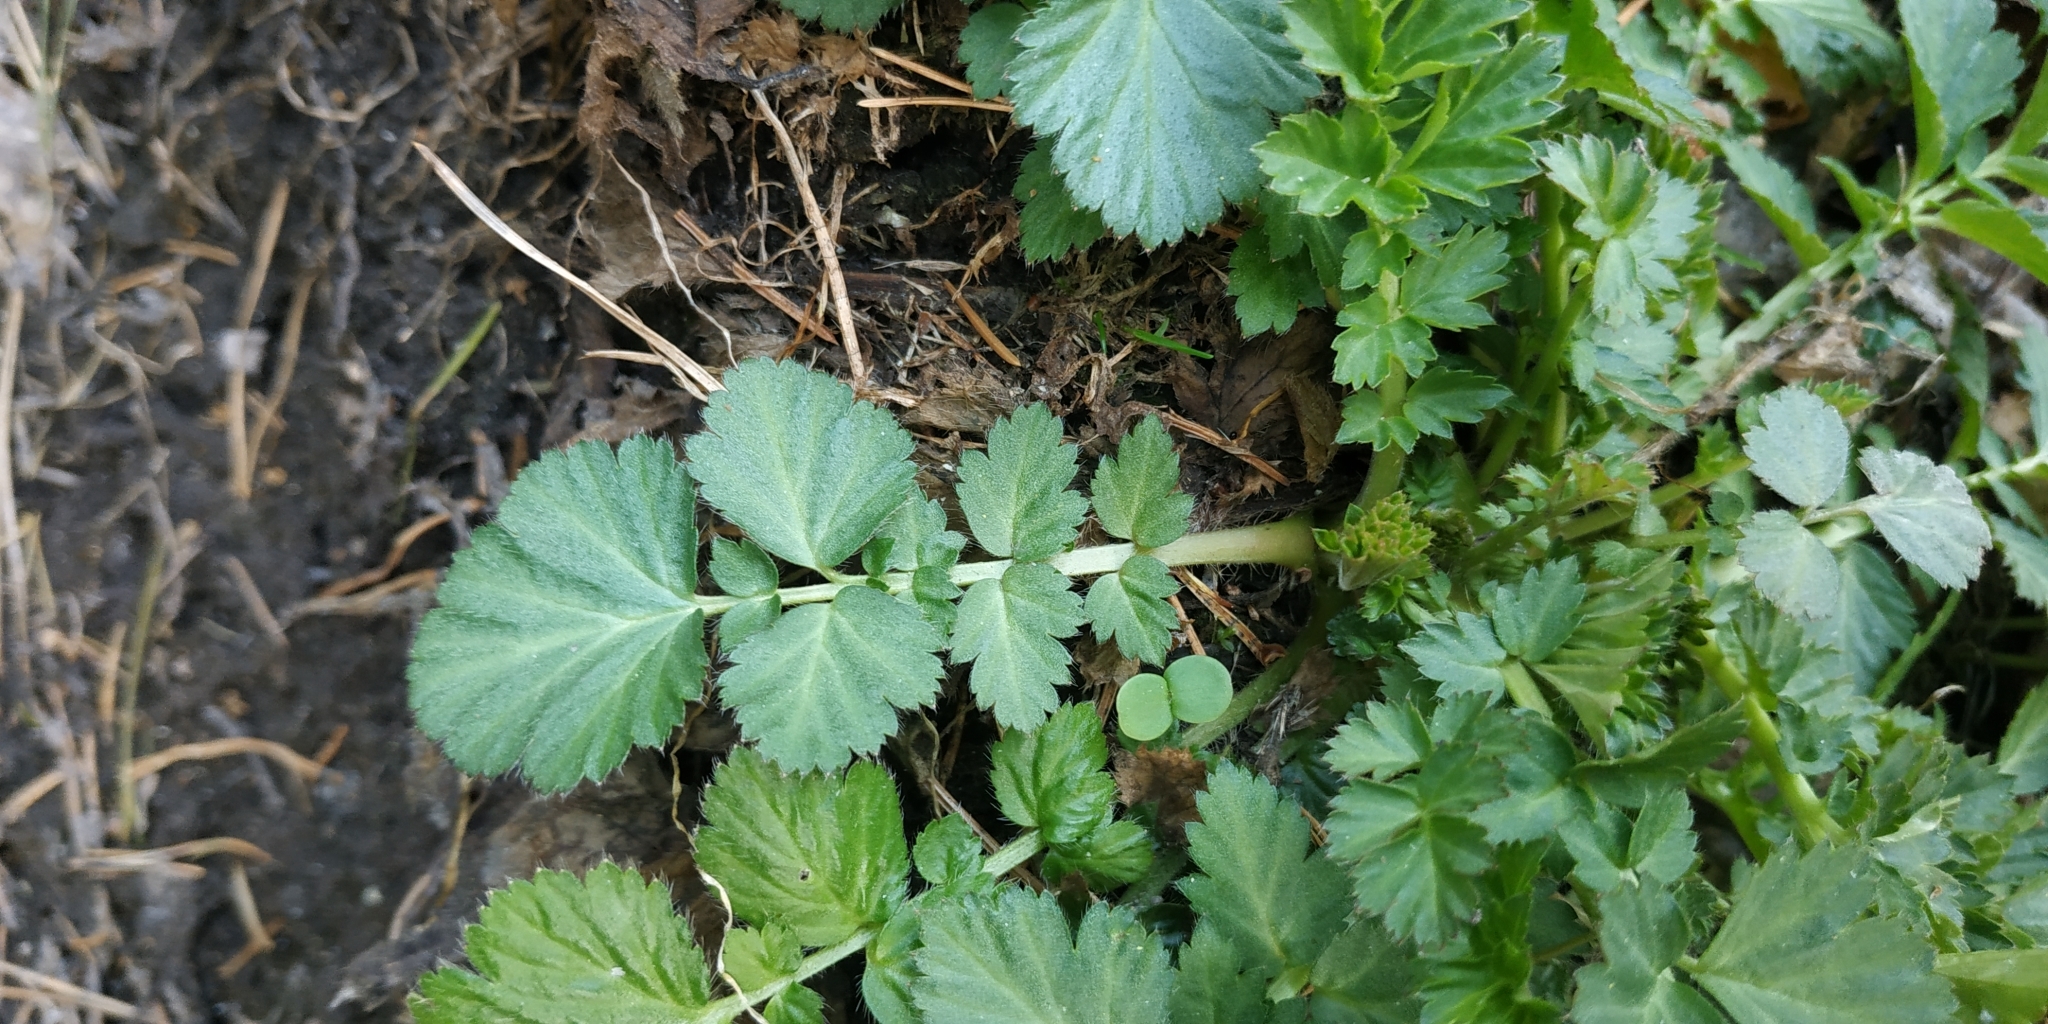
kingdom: Plantae
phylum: Tracheophyta
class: Magnoliopsida
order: Rosales
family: Rosaceae
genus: Geum
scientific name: Geum aleppicum
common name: Yellow avens
